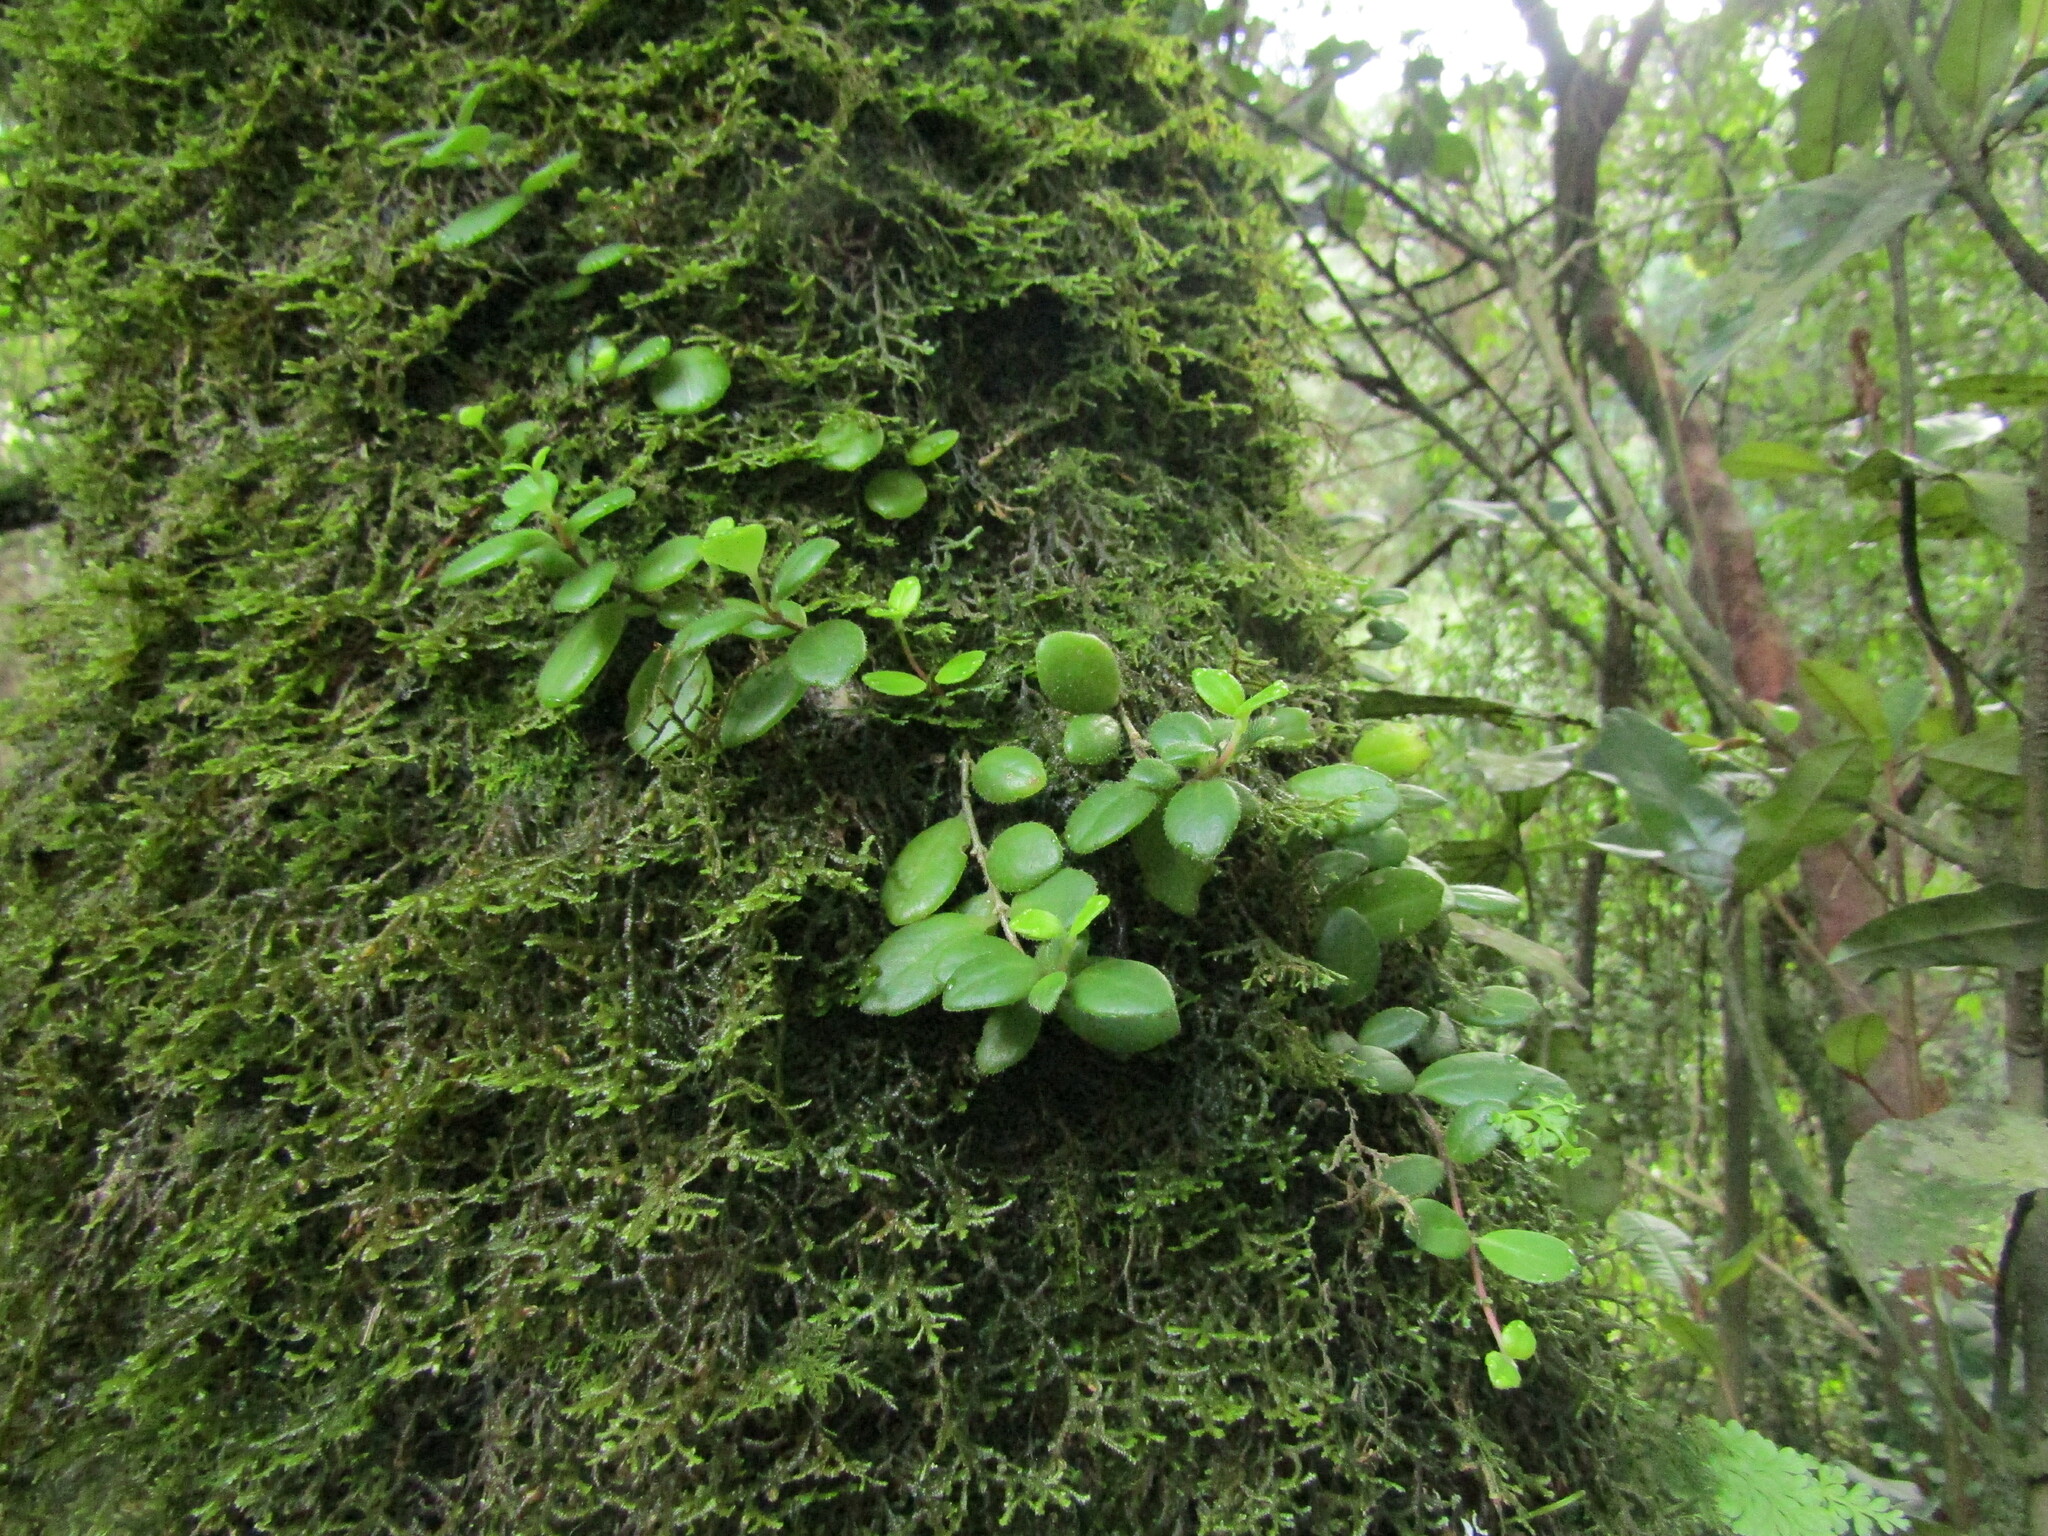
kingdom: Plantae
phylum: Tracheophyta
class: Magnoliopsida
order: Lamiales
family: Gesneriaceae
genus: Sarmienta
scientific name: Sarmienta scandens
